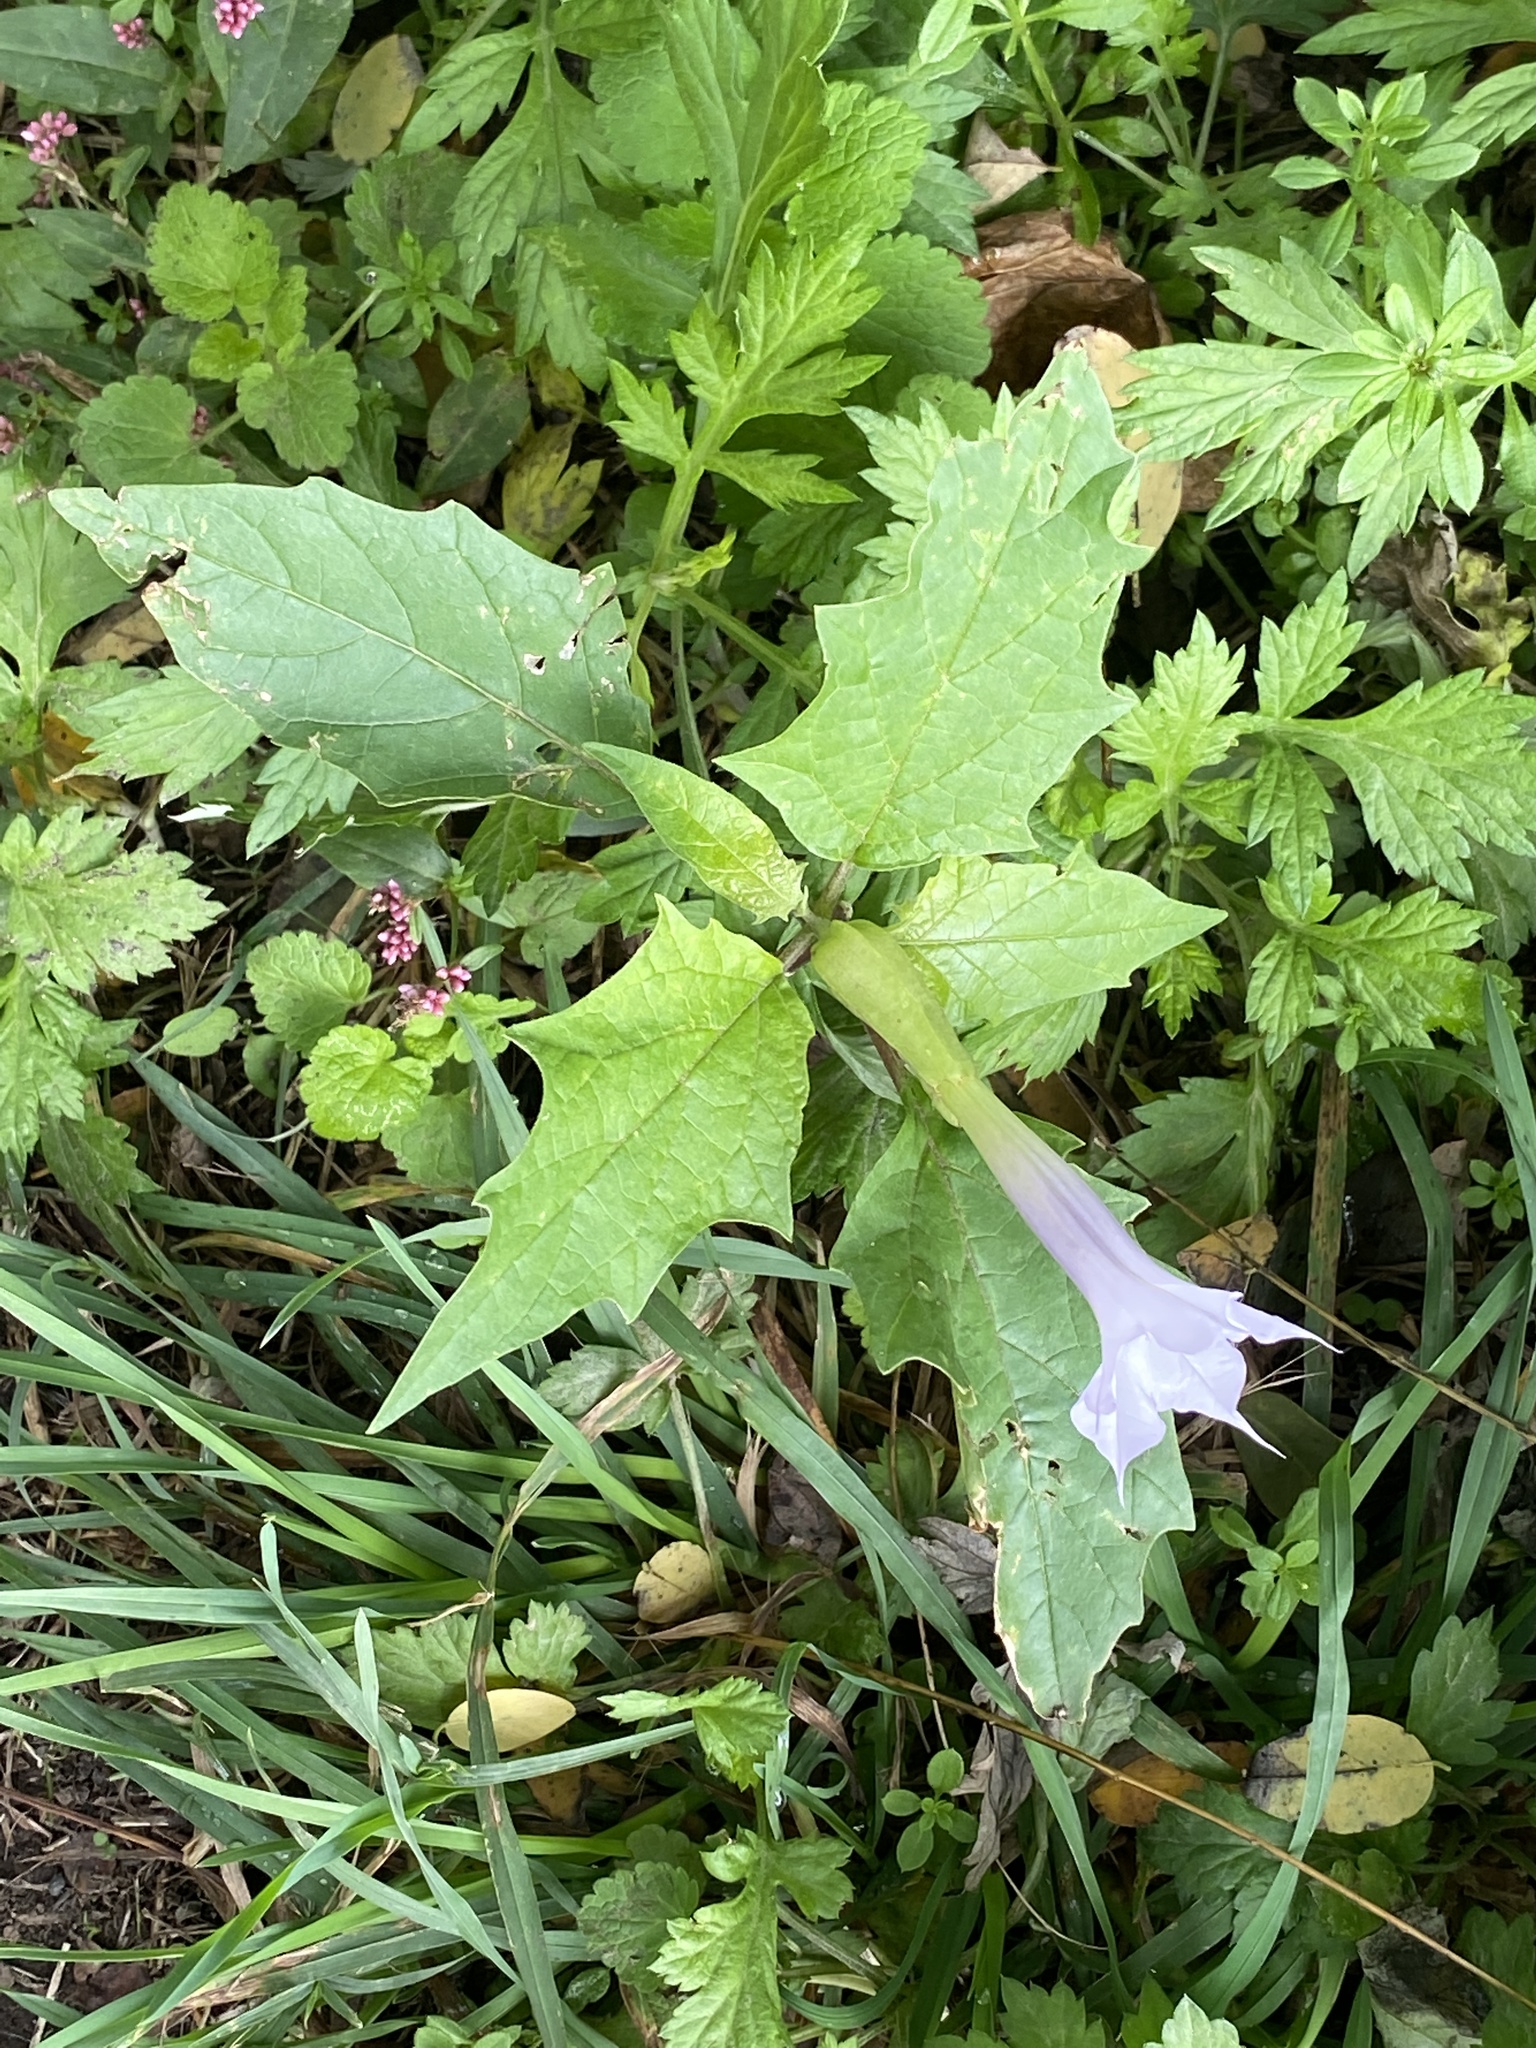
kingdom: Plantae
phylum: Tracheophyta
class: Magnoliopsida
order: Solanales
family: Solanaceae
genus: Datura
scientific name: Datura stramonium
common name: Thorn-apple
